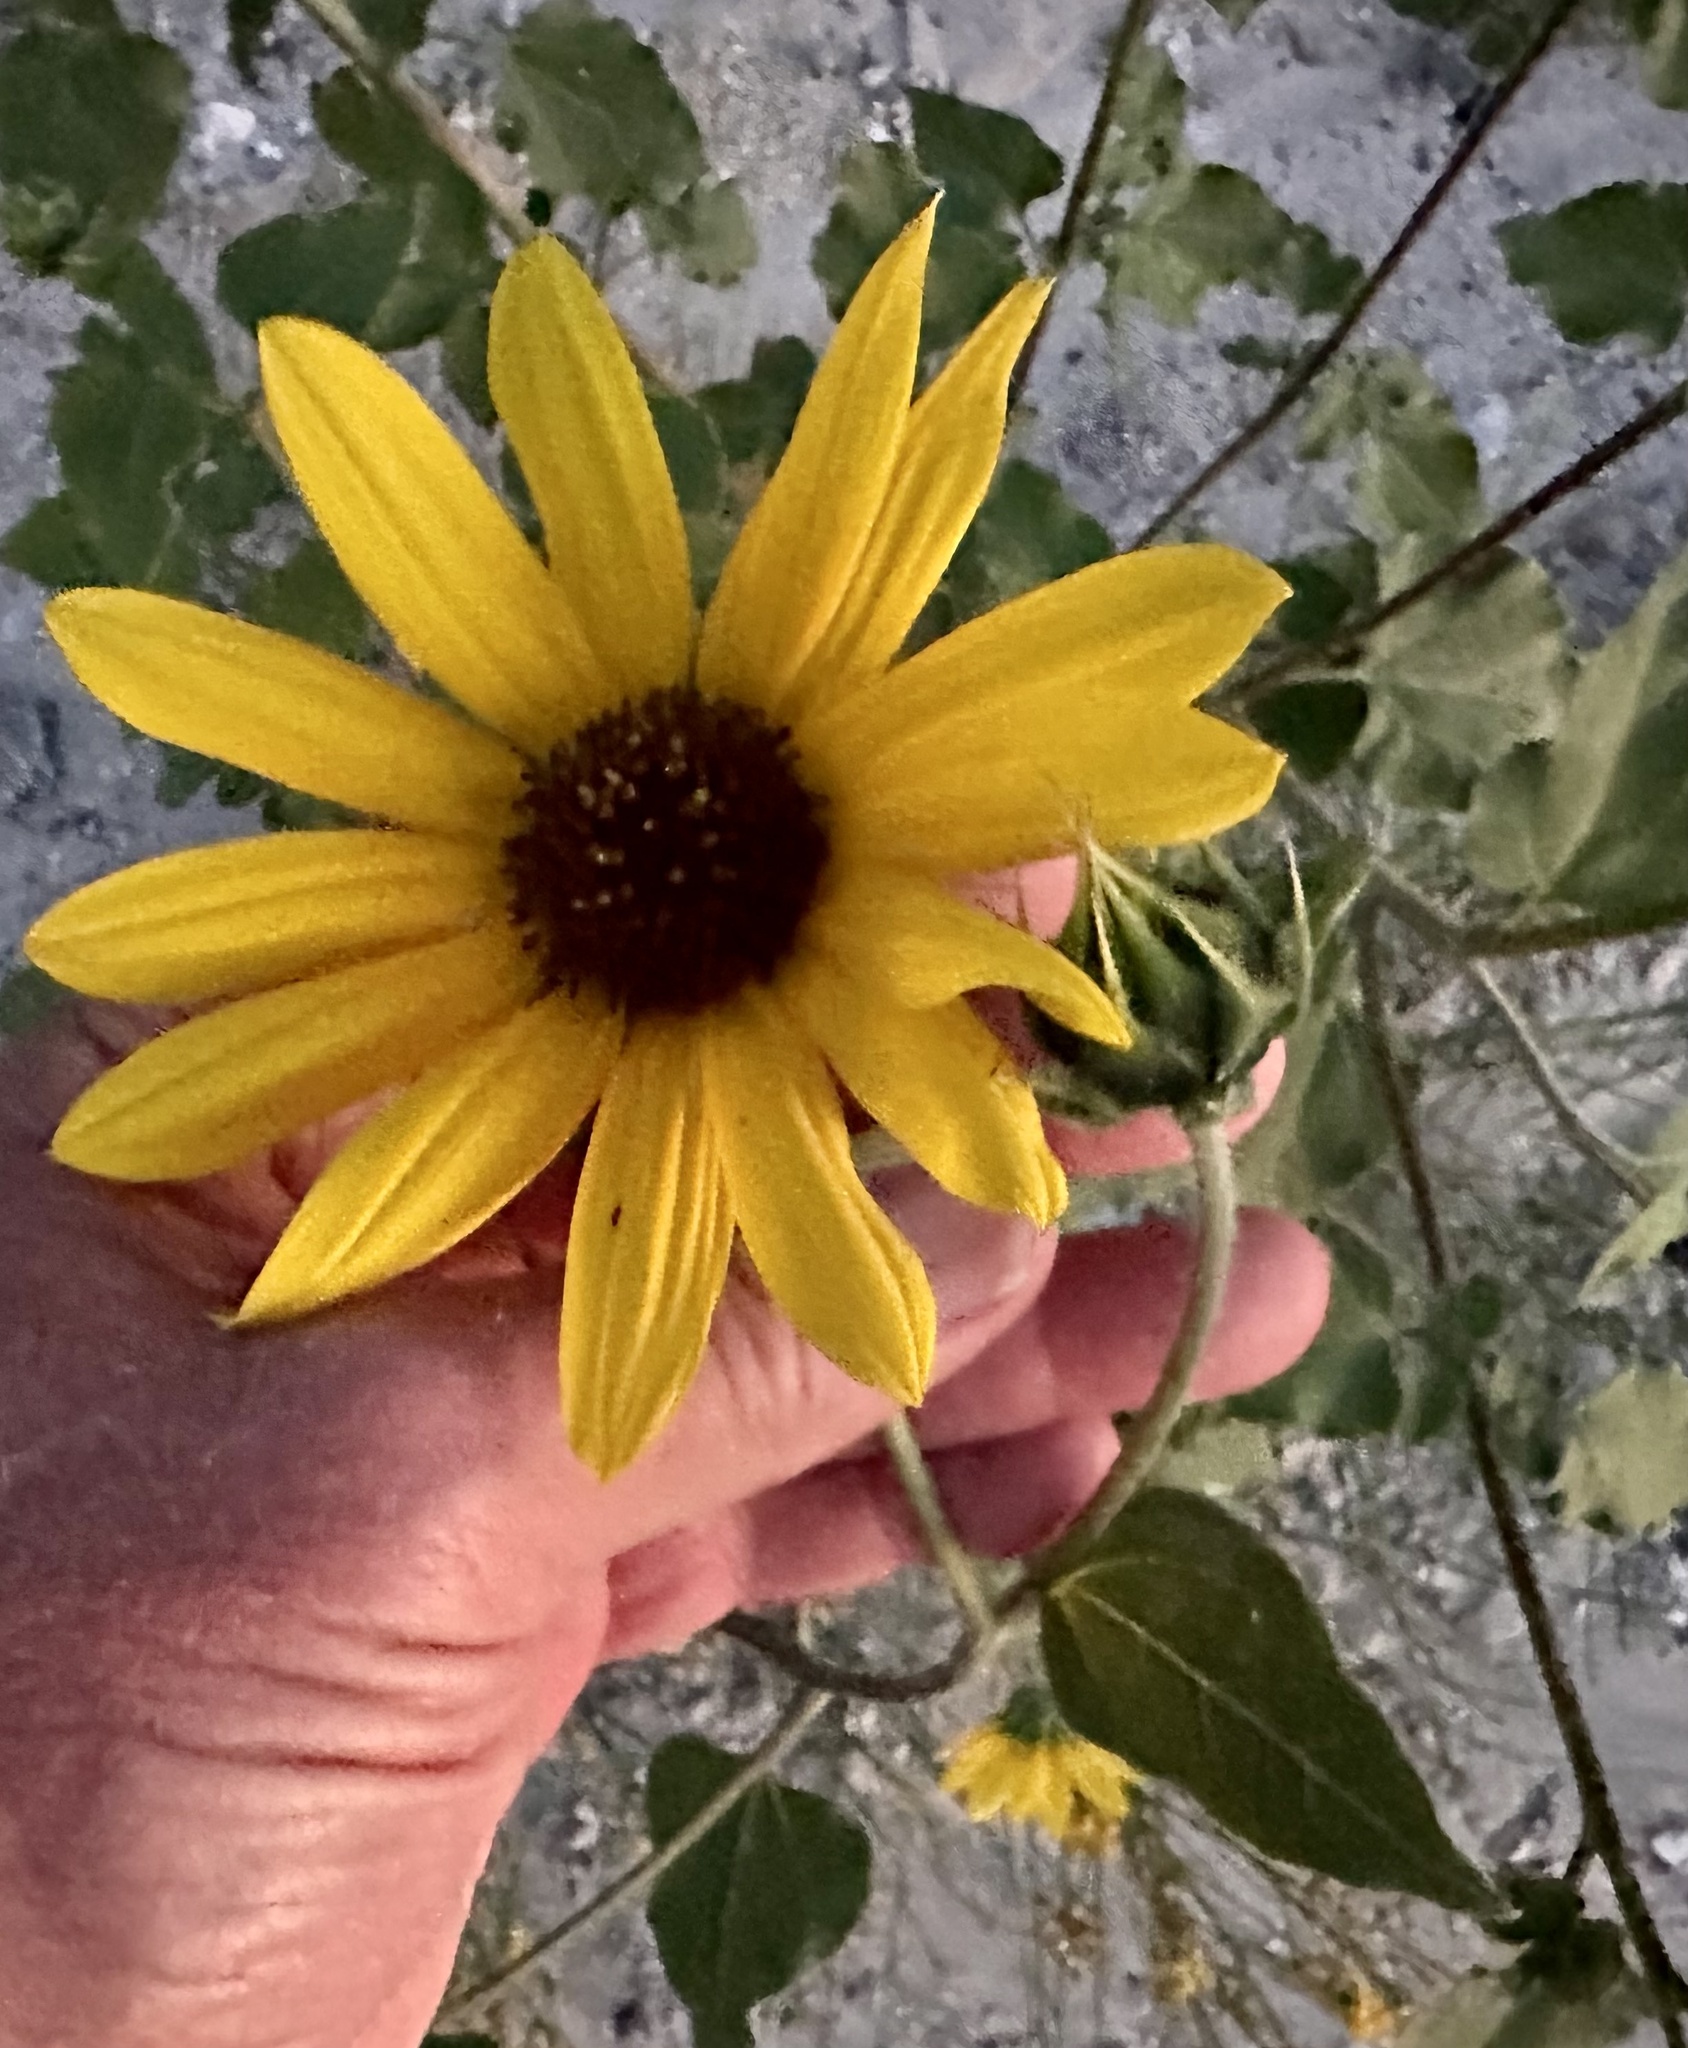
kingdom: Plantae
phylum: Tracheophyta
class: Magnoliopsida
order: Asterales
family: Asteraceae
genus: Helianthus
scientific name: Helianthus annuus
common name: Sunflower
